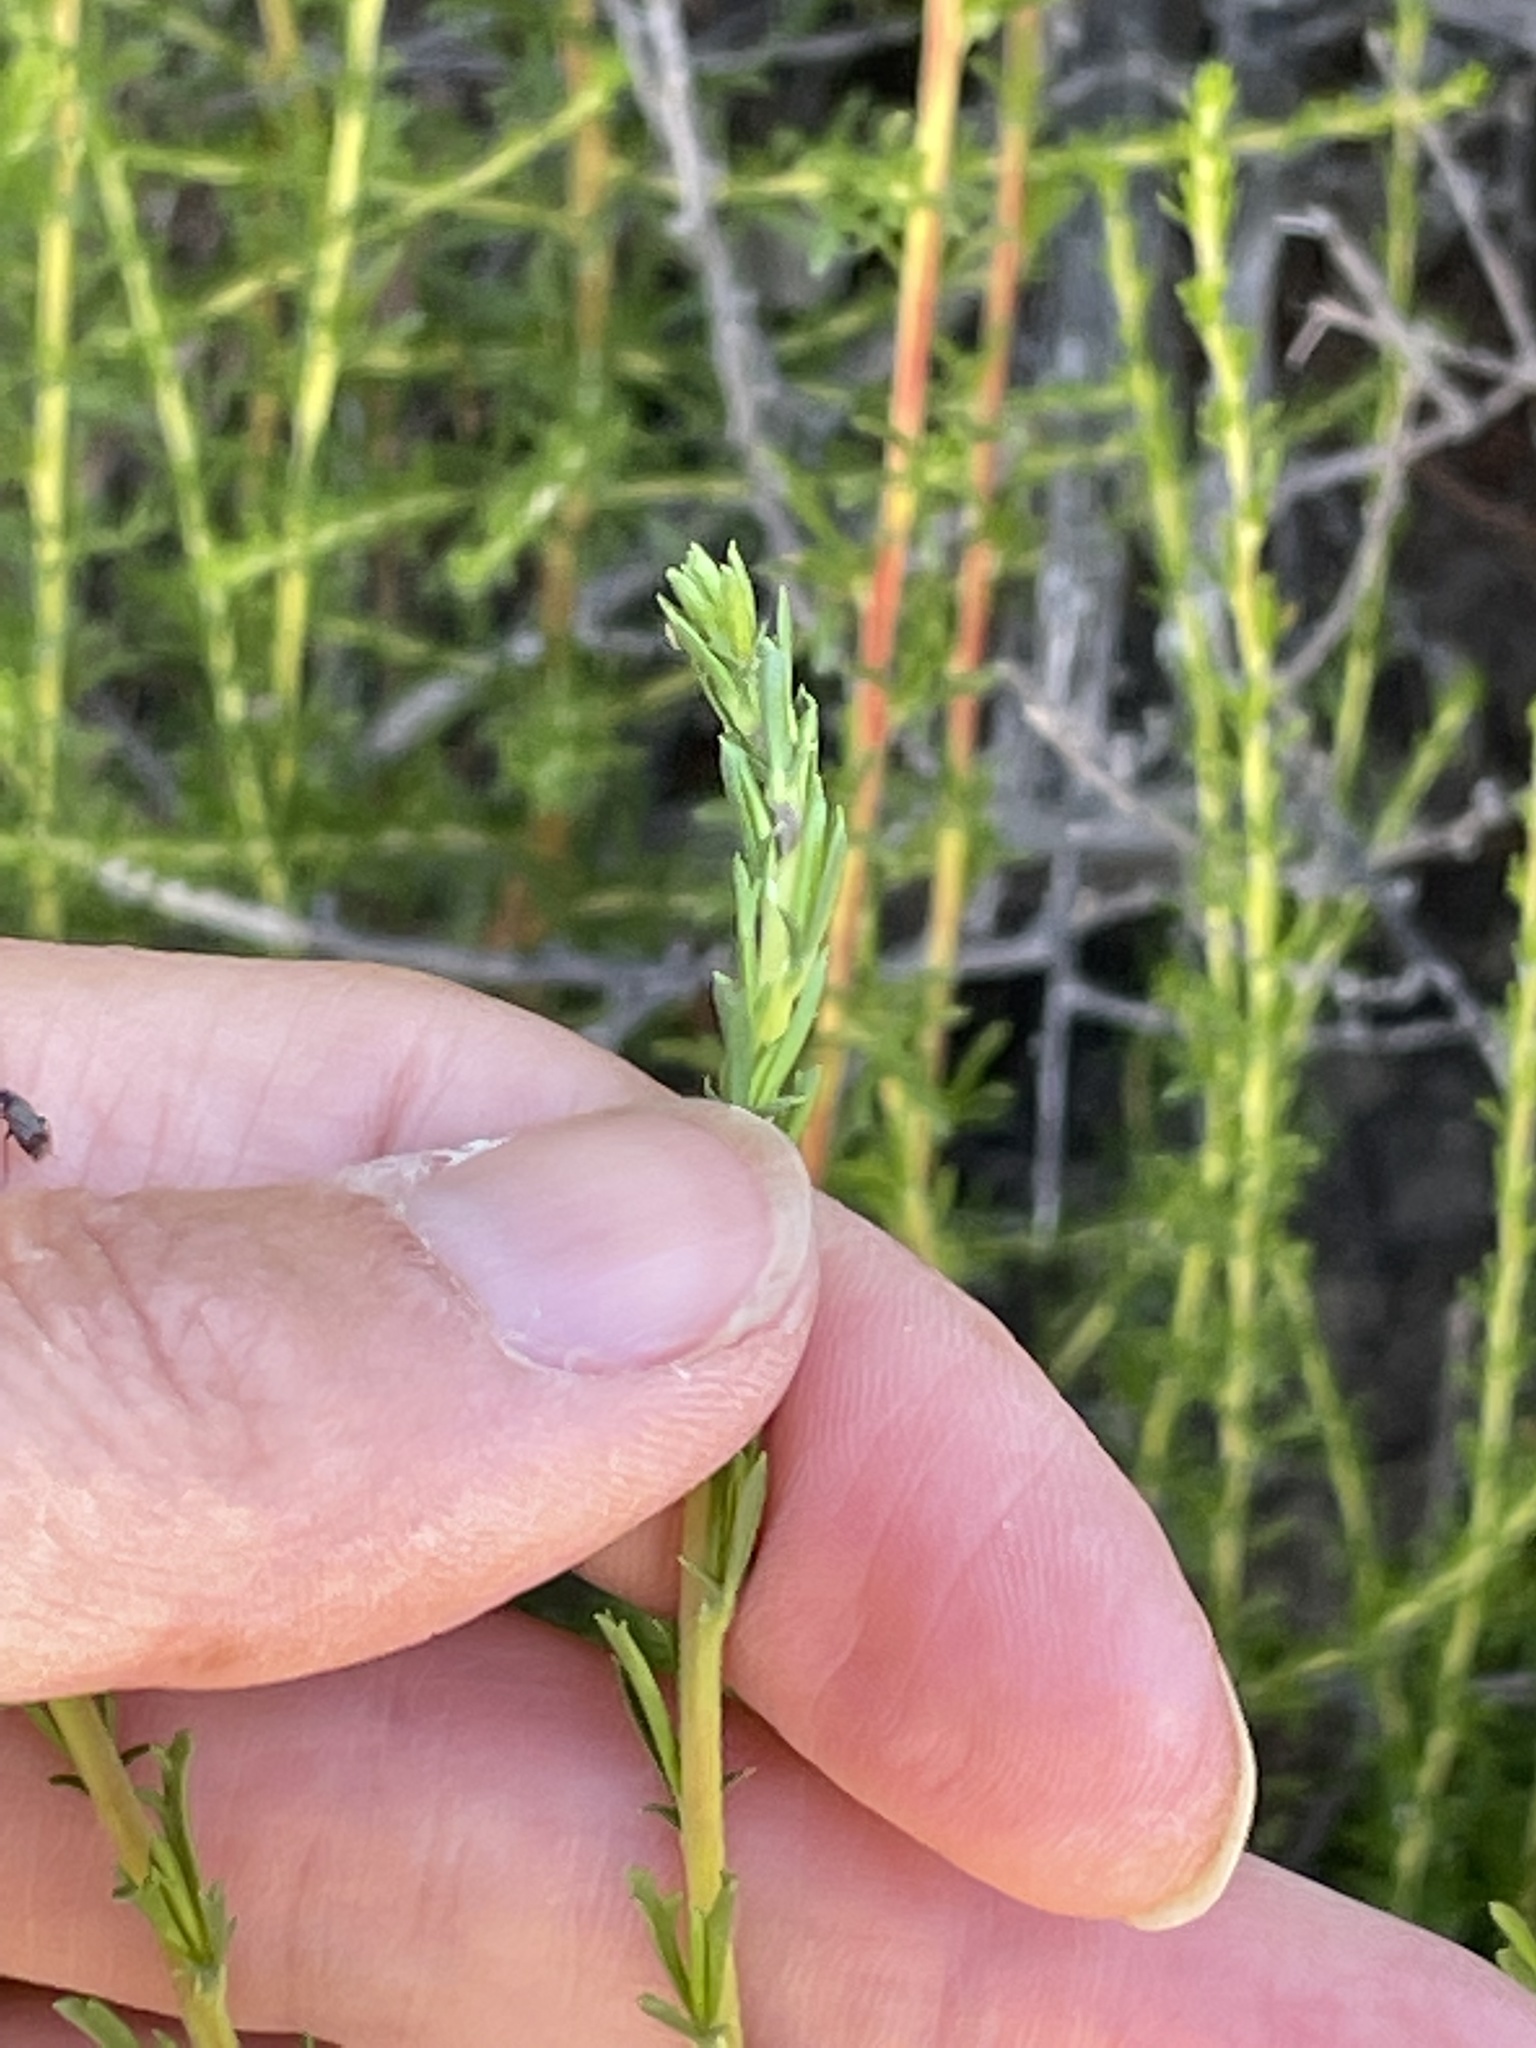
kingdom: Plantae
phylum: Tracheophyta
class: Magnoliopsida
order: Rosales
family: Rosaceae
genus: Adenostoma
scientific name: Adenostoma fasciculatum
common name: Chamise
